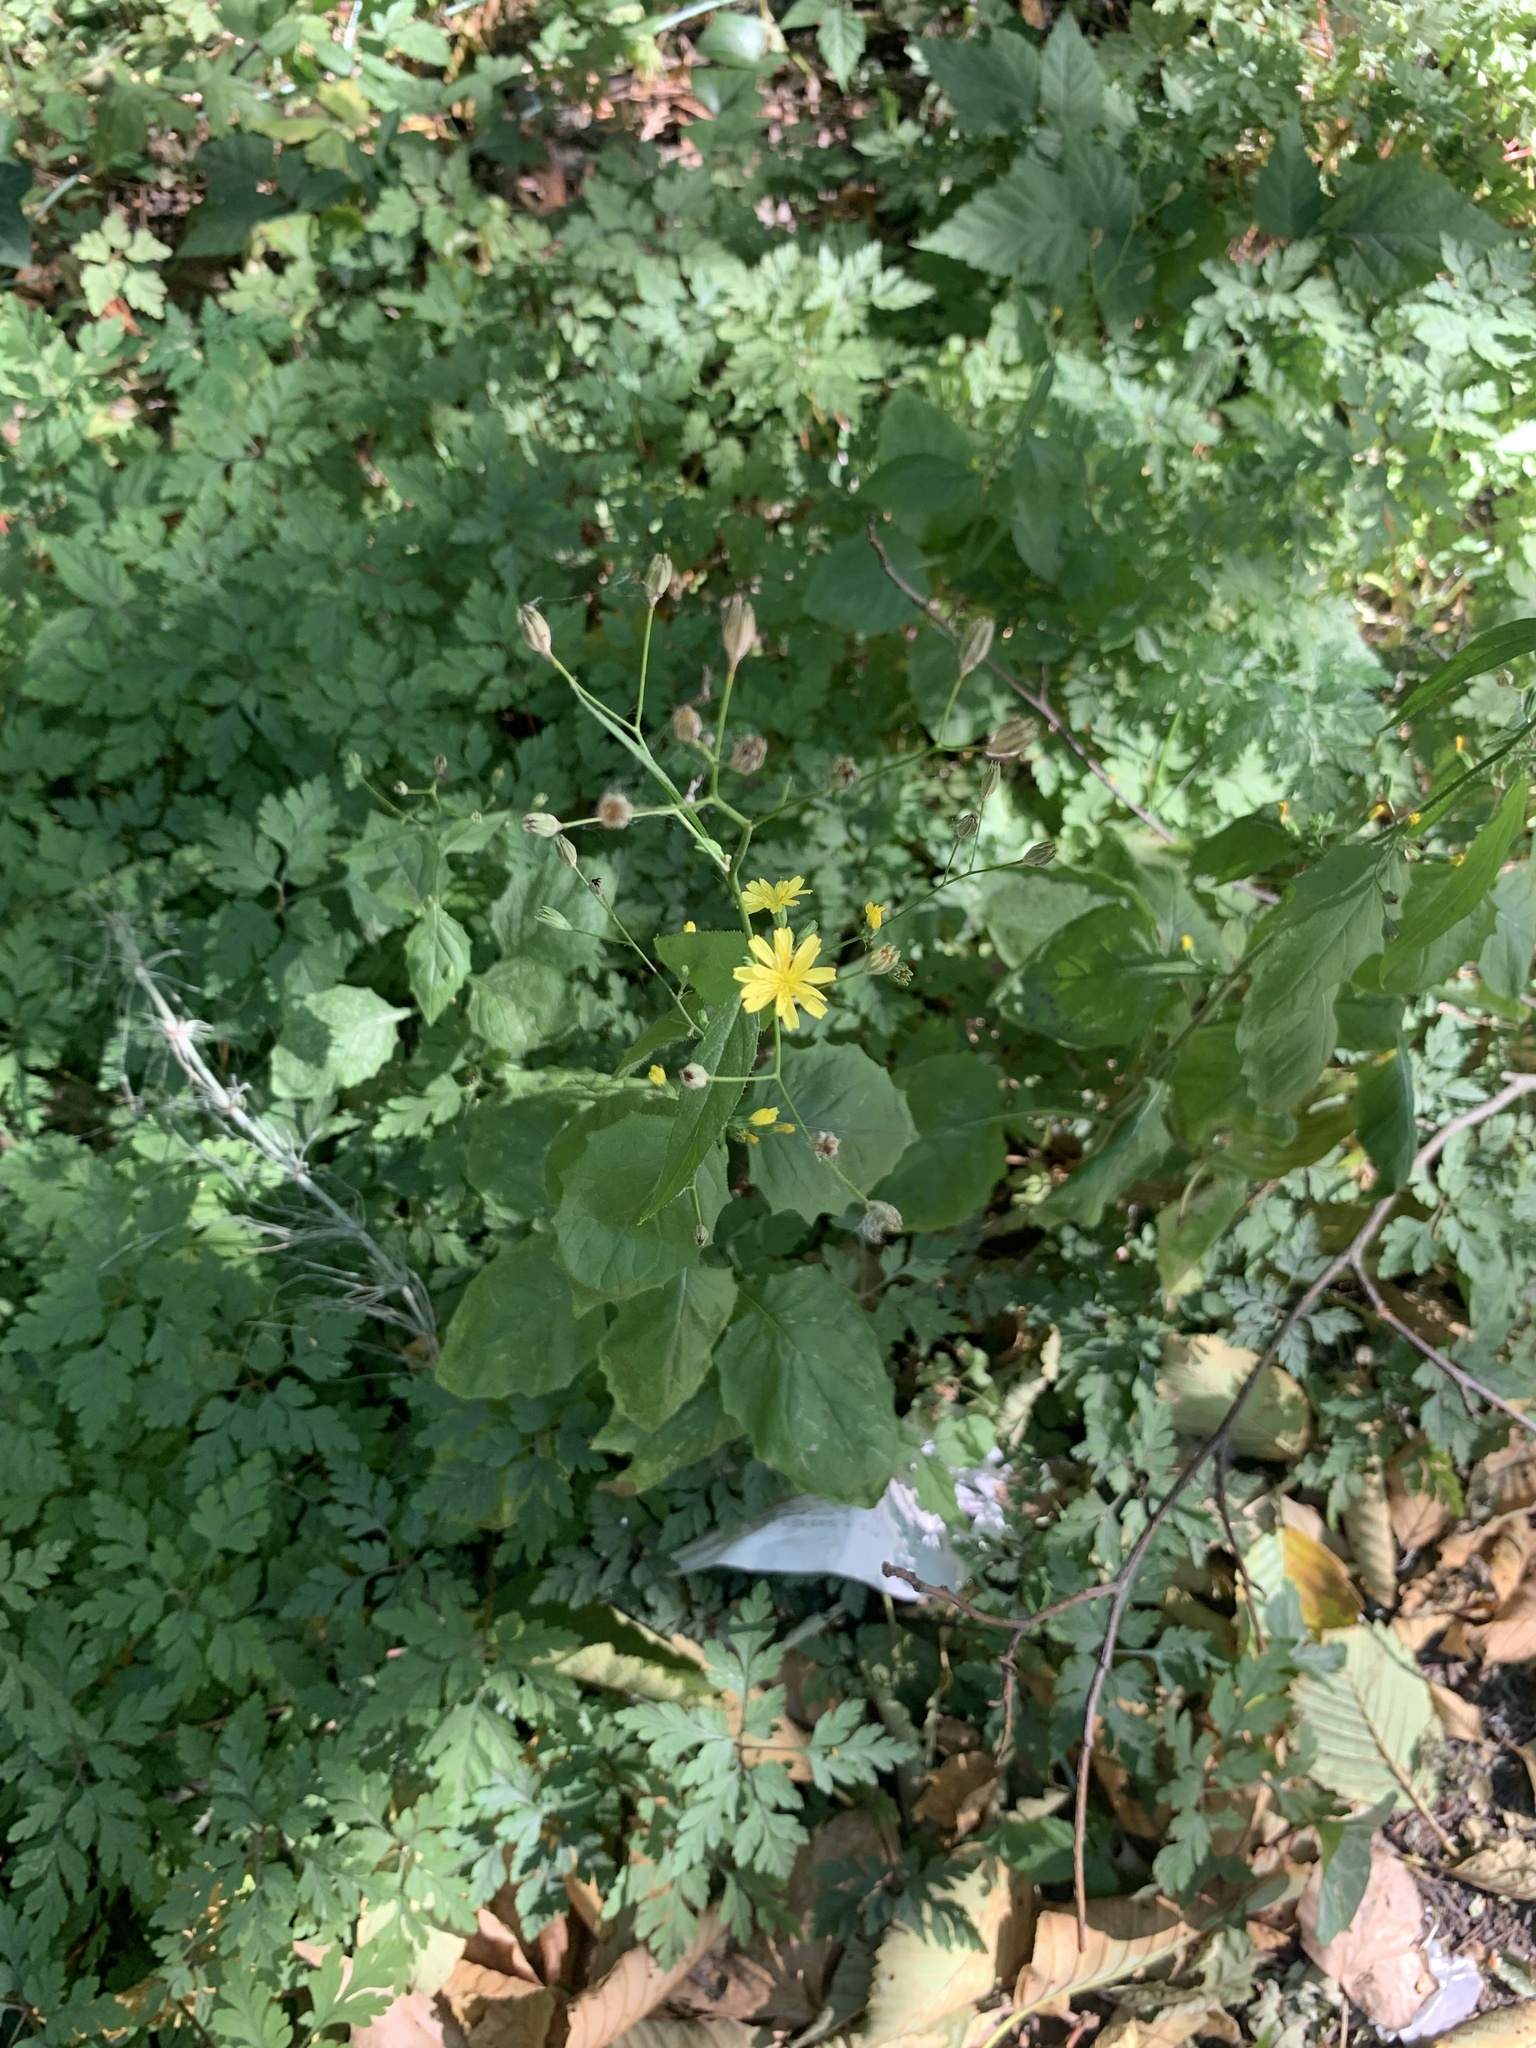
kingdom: Plantae
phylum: Tracheophyta
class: Magnoliopsida
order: Asterales
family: Asteraceae
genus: Lapsana
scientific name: Lapsana communis
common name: Nipplewort
